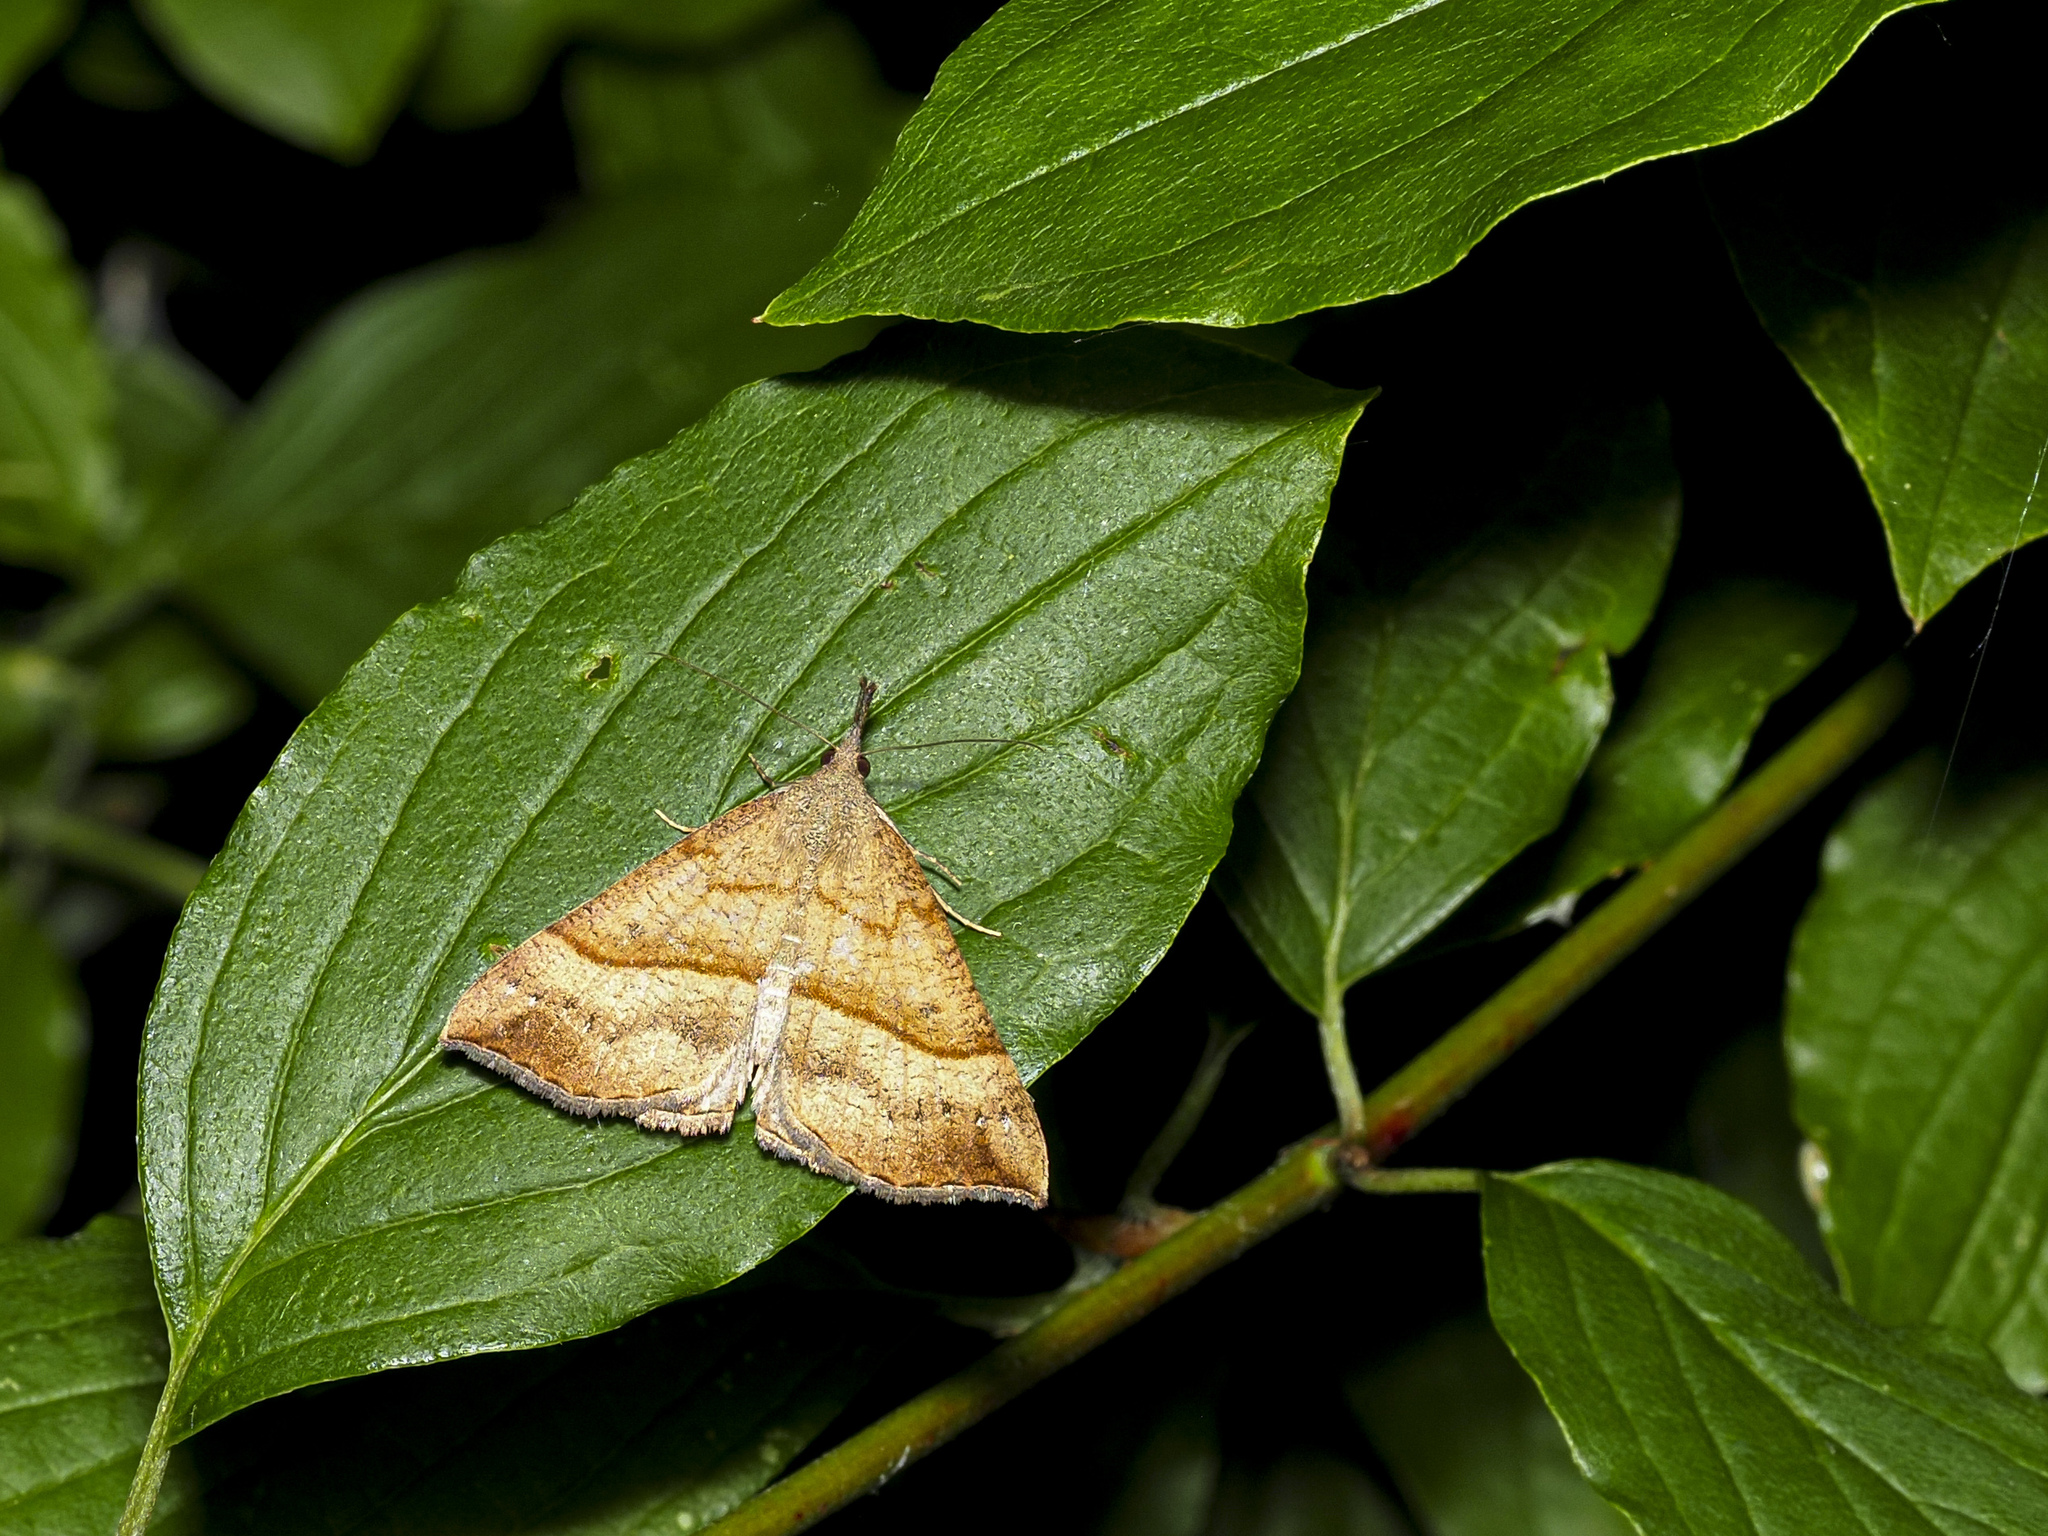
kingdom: Animalia
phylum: Arthropoda
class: Insecta
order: Lepidoptera
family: Erebidae
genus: Hypena
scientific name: Hypena proboscidalis
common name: Snout
